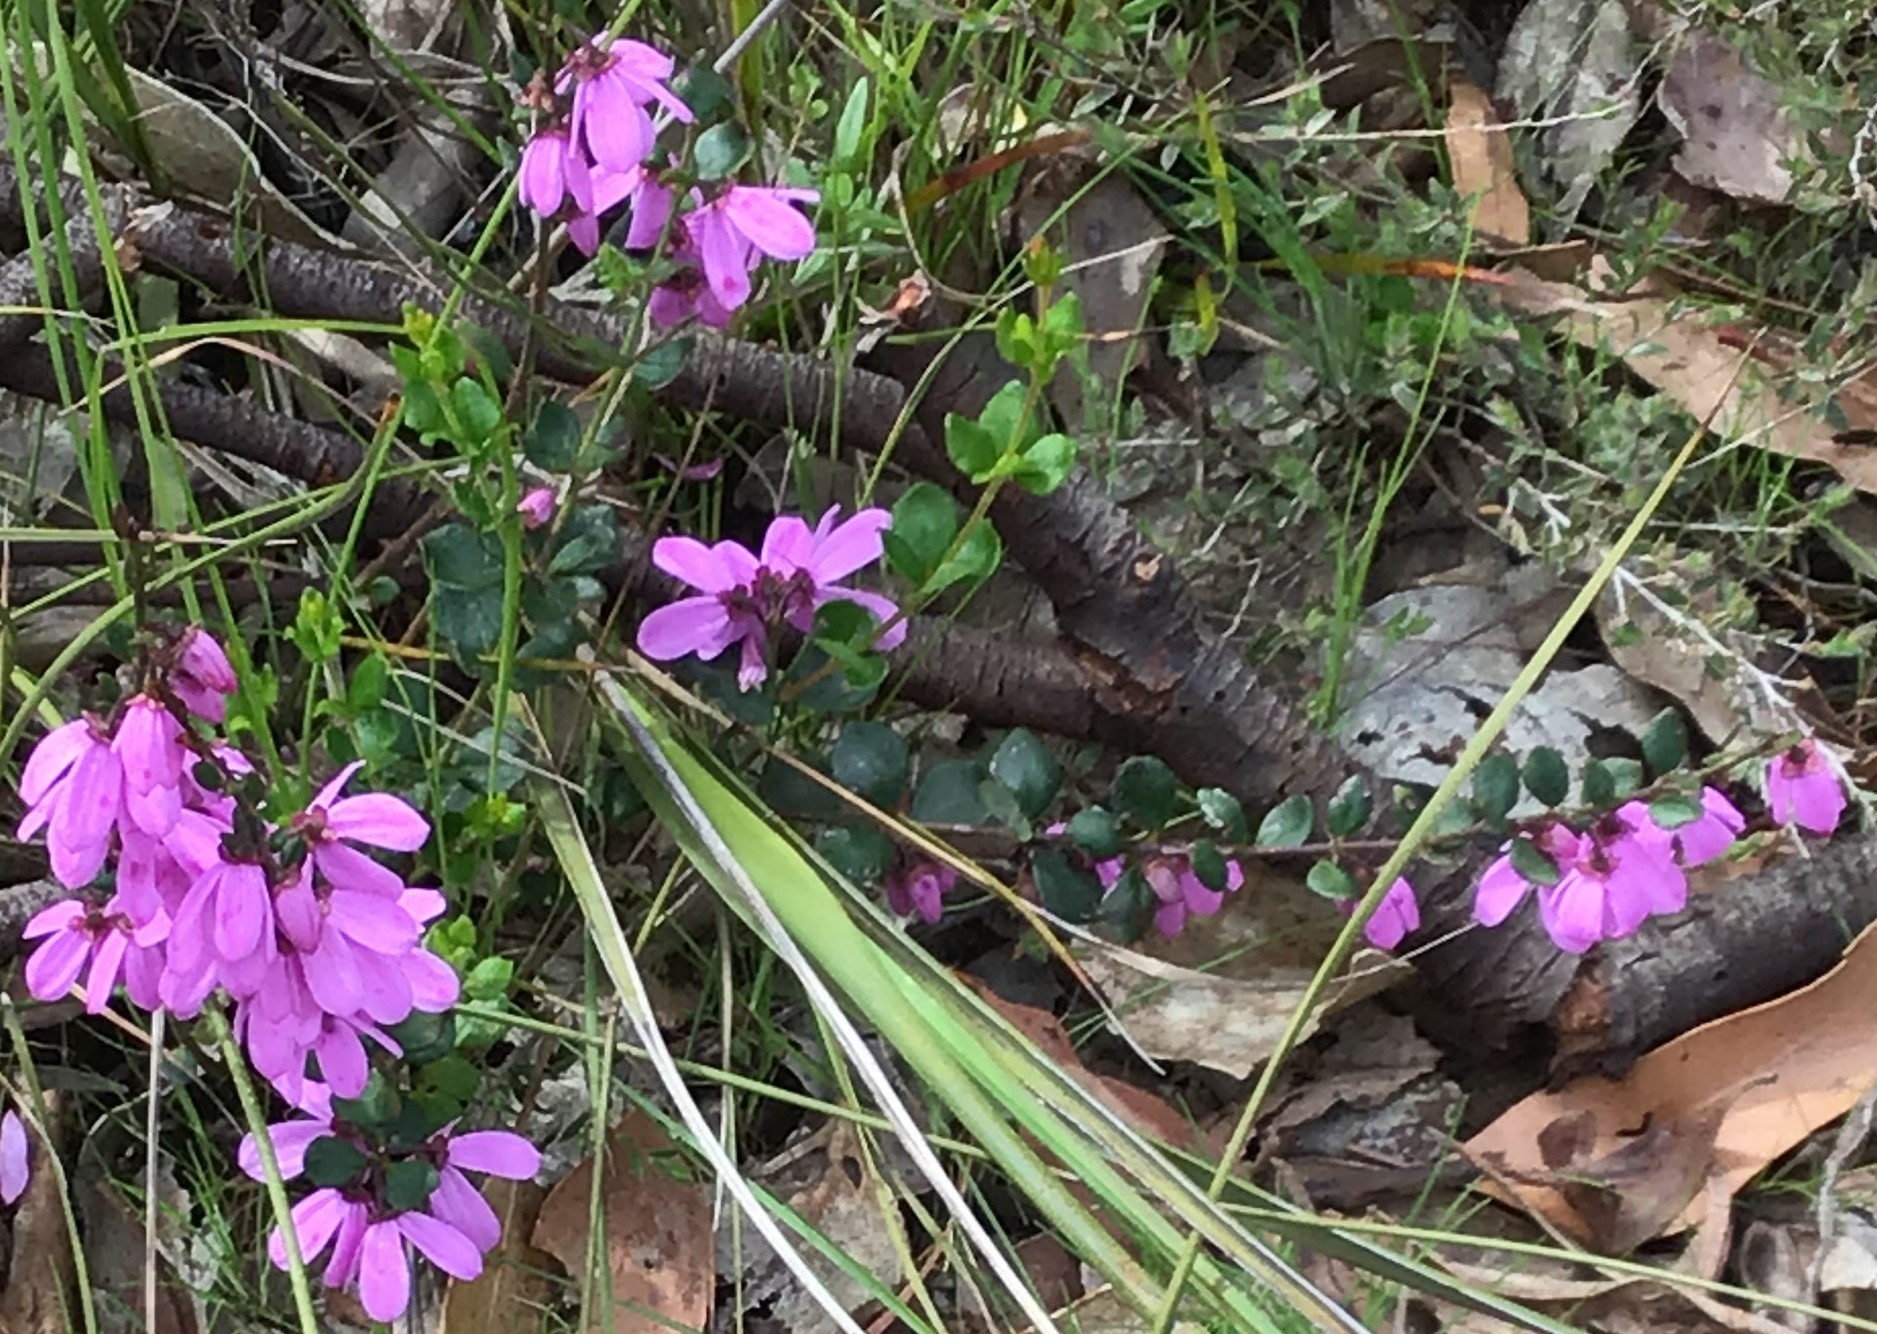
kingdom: Plantae
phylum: Tracheophyta
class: Magnoliopsida
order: Oxalidales
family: Elaeocarpaceae
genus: Tetratheca
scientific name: Tetratheca ciliata
